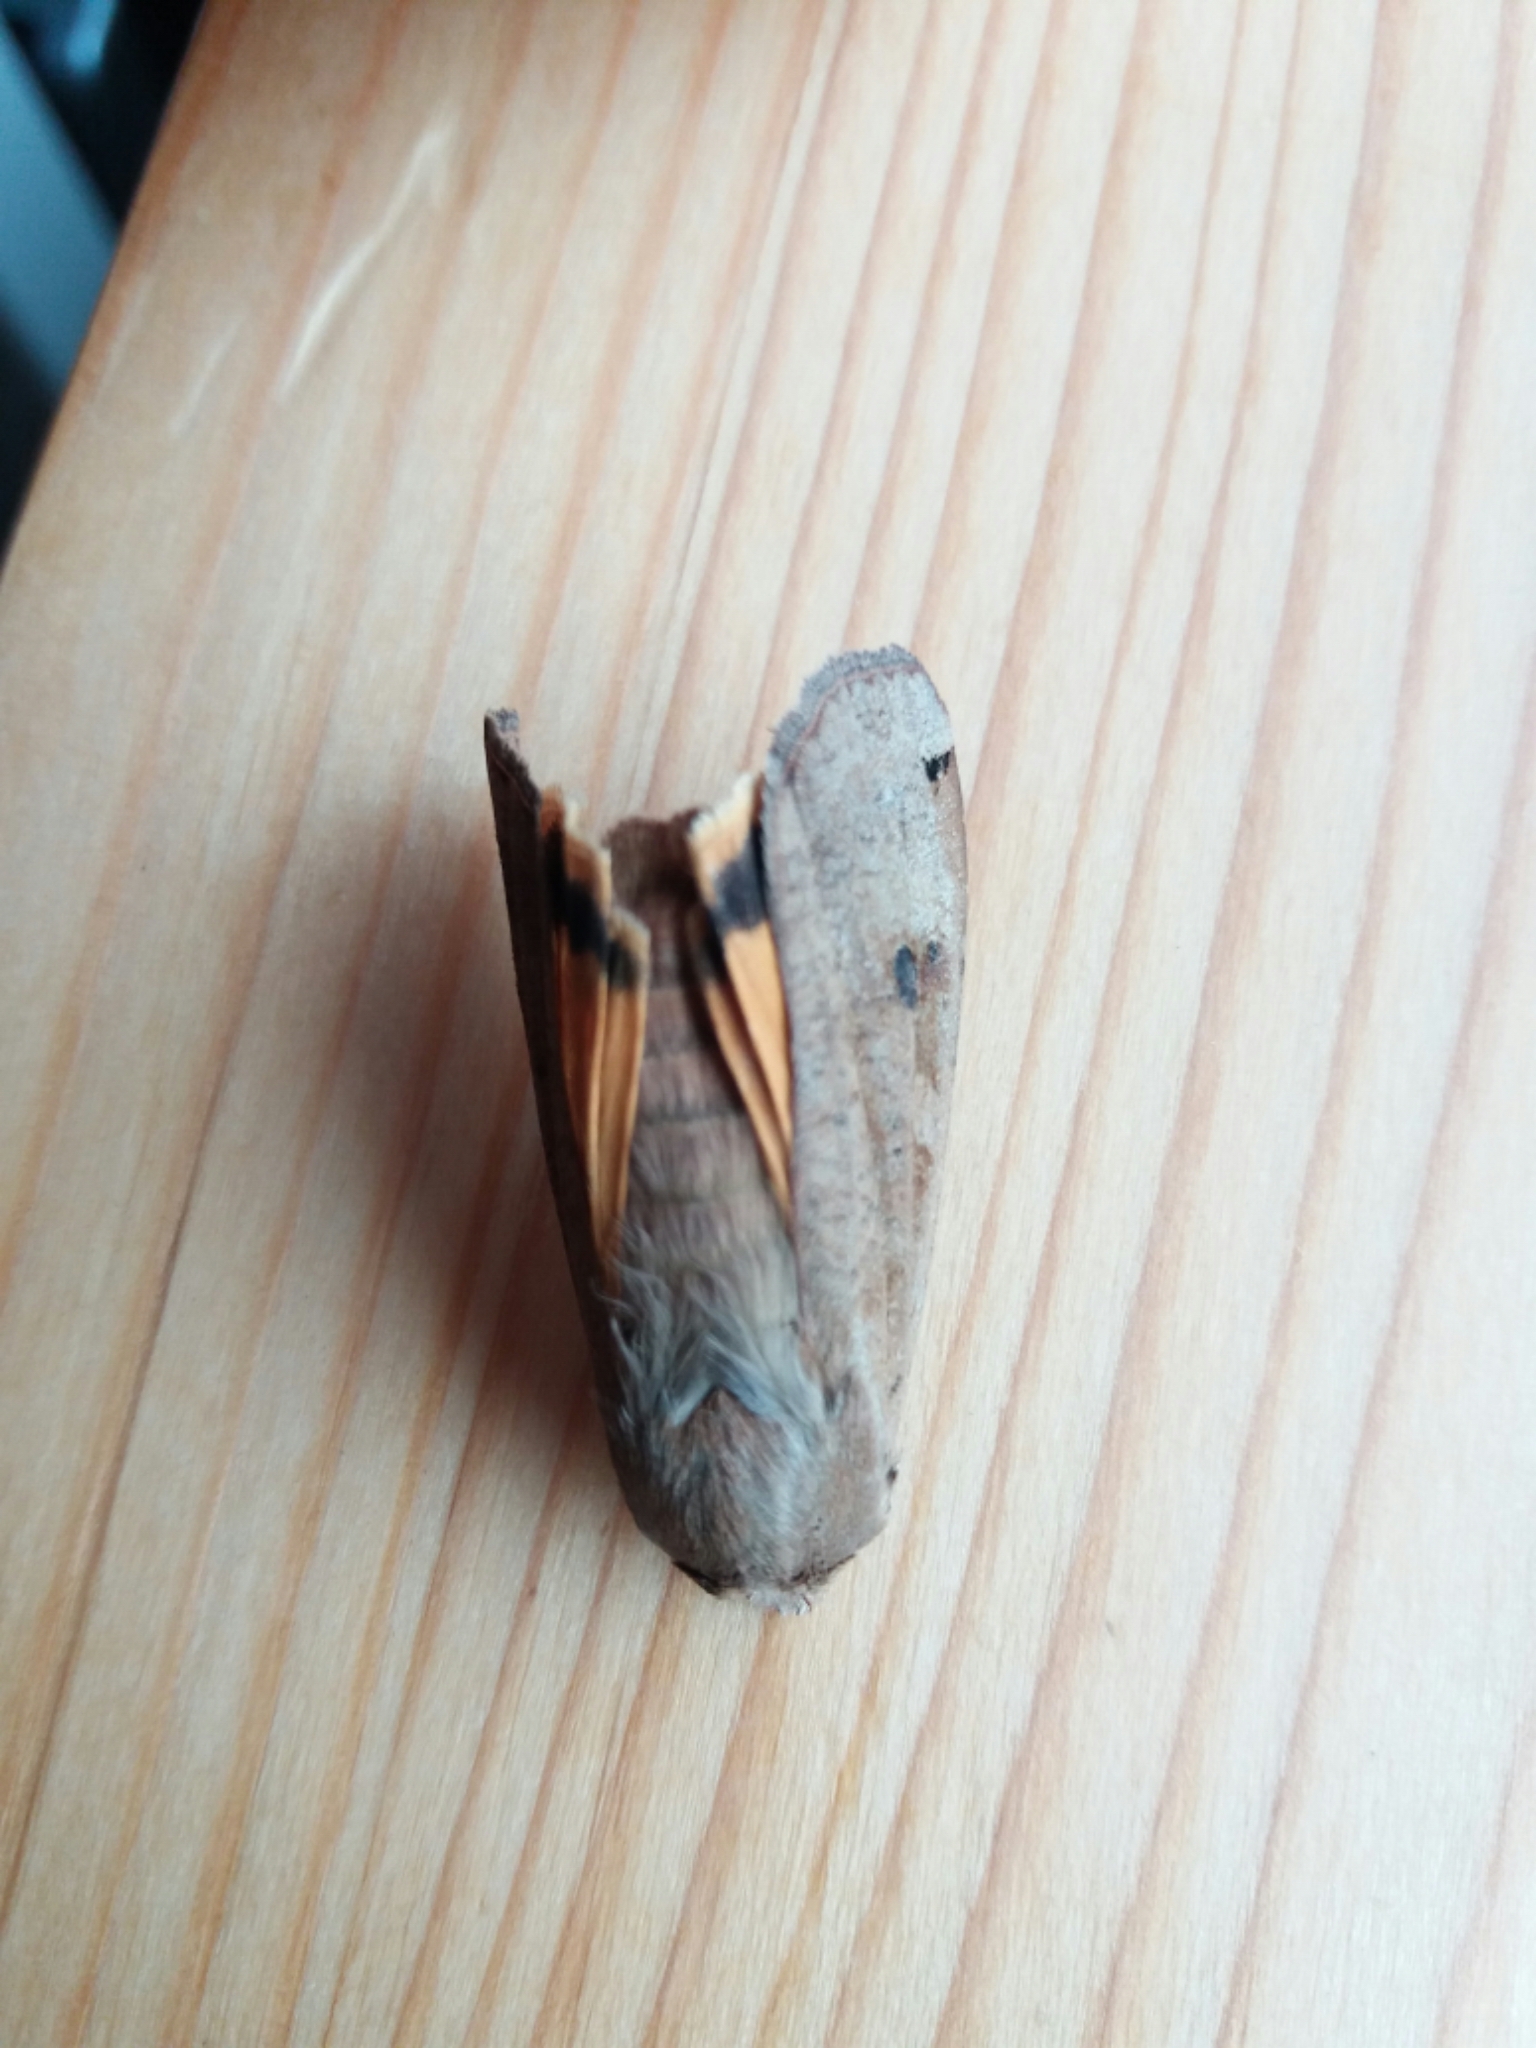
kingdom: Animalia
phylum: Arthropoda
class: Insecta
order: Lepidoptera
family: Noctuidae
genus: Noctua
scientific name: Noctua pronuba
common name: Large yellow underwing
